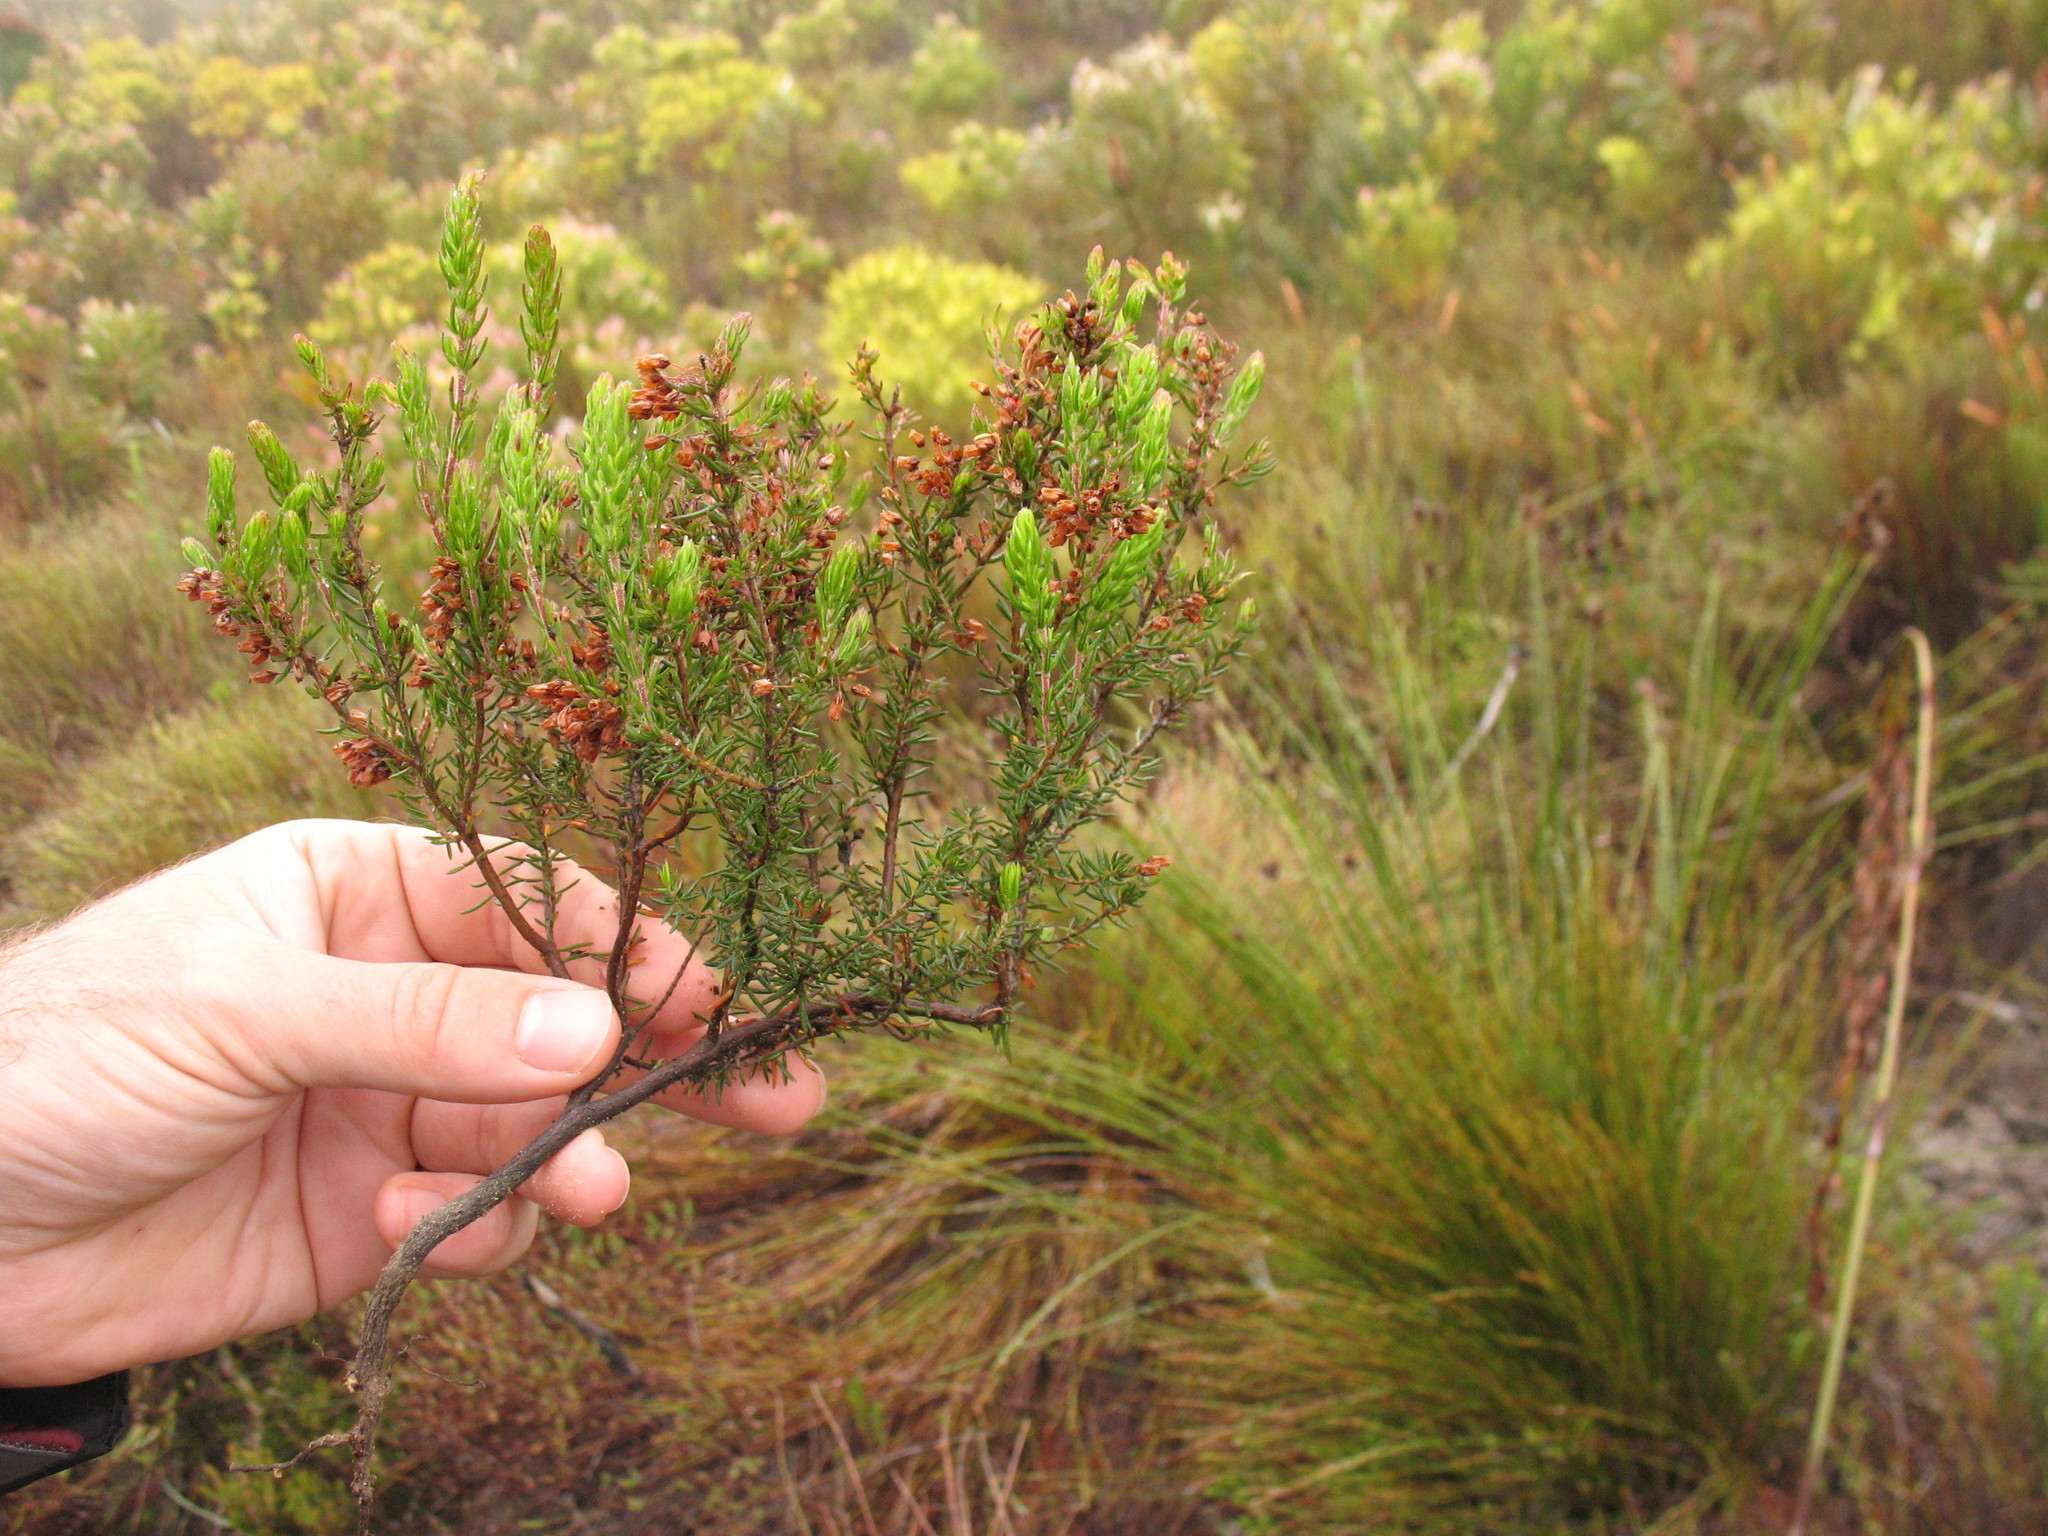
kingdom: Plantae
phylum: Tracheophyta
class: Magnoliopsida
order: Ericales
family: Ericaceae
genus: Erica
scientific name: Erica nudiflora
